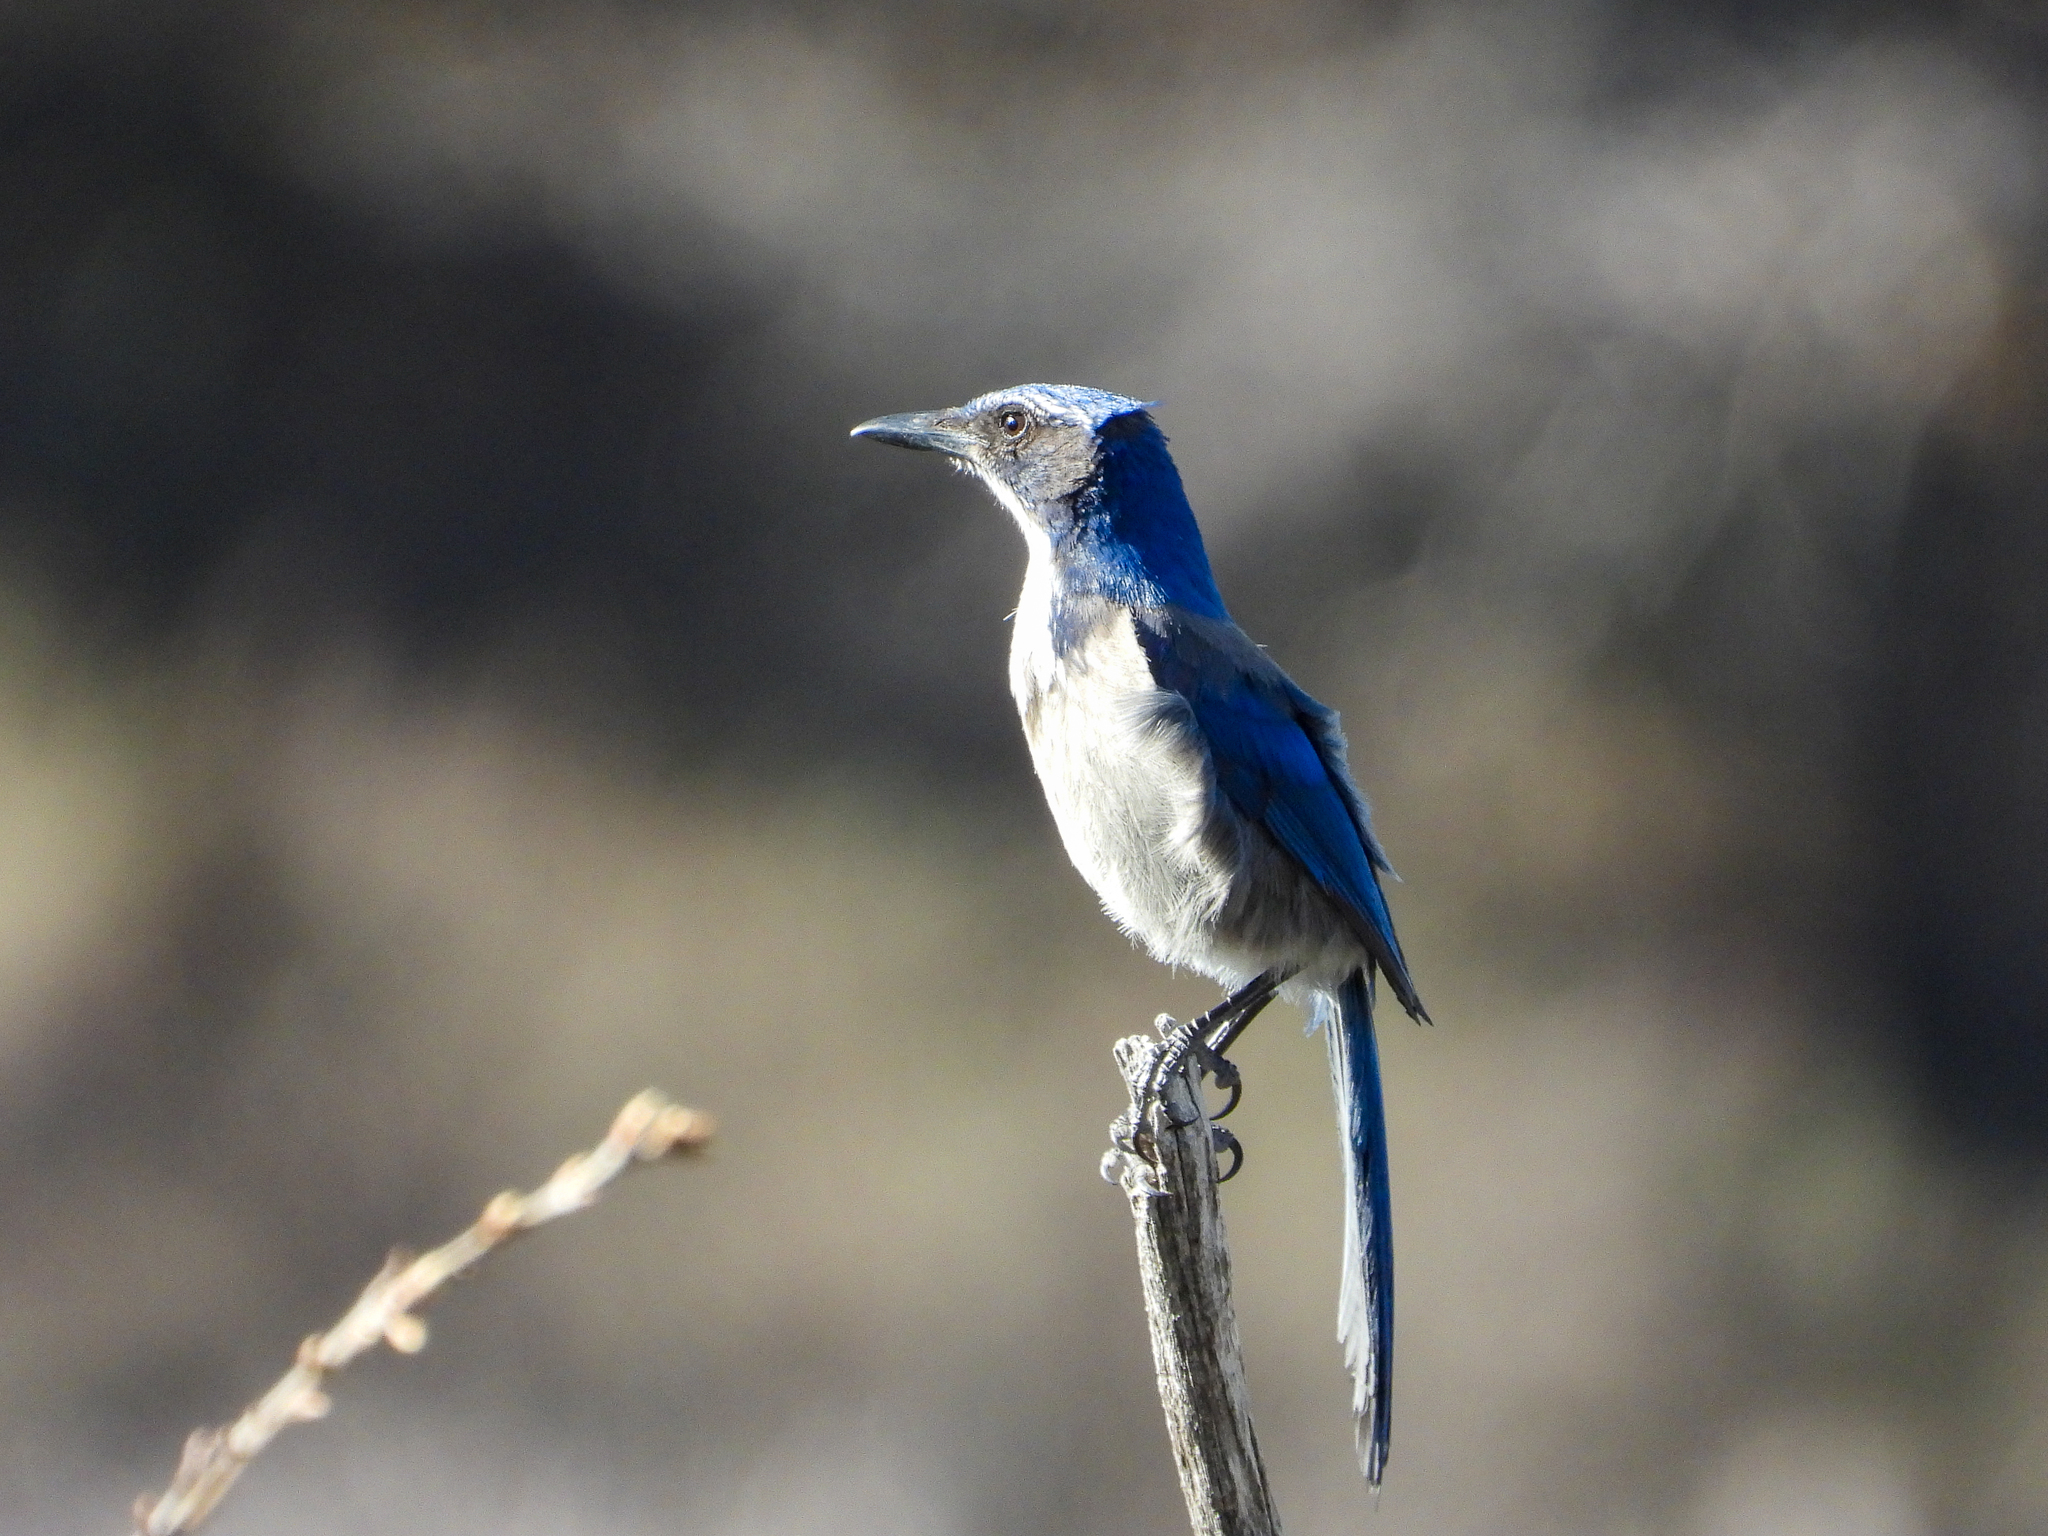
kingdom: Animalia
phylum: Chordata
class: Aves
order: Passeriformes
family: Corvidae
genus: Aphelocoma
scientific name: Aphelocoma californica
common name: California scrub-jay
